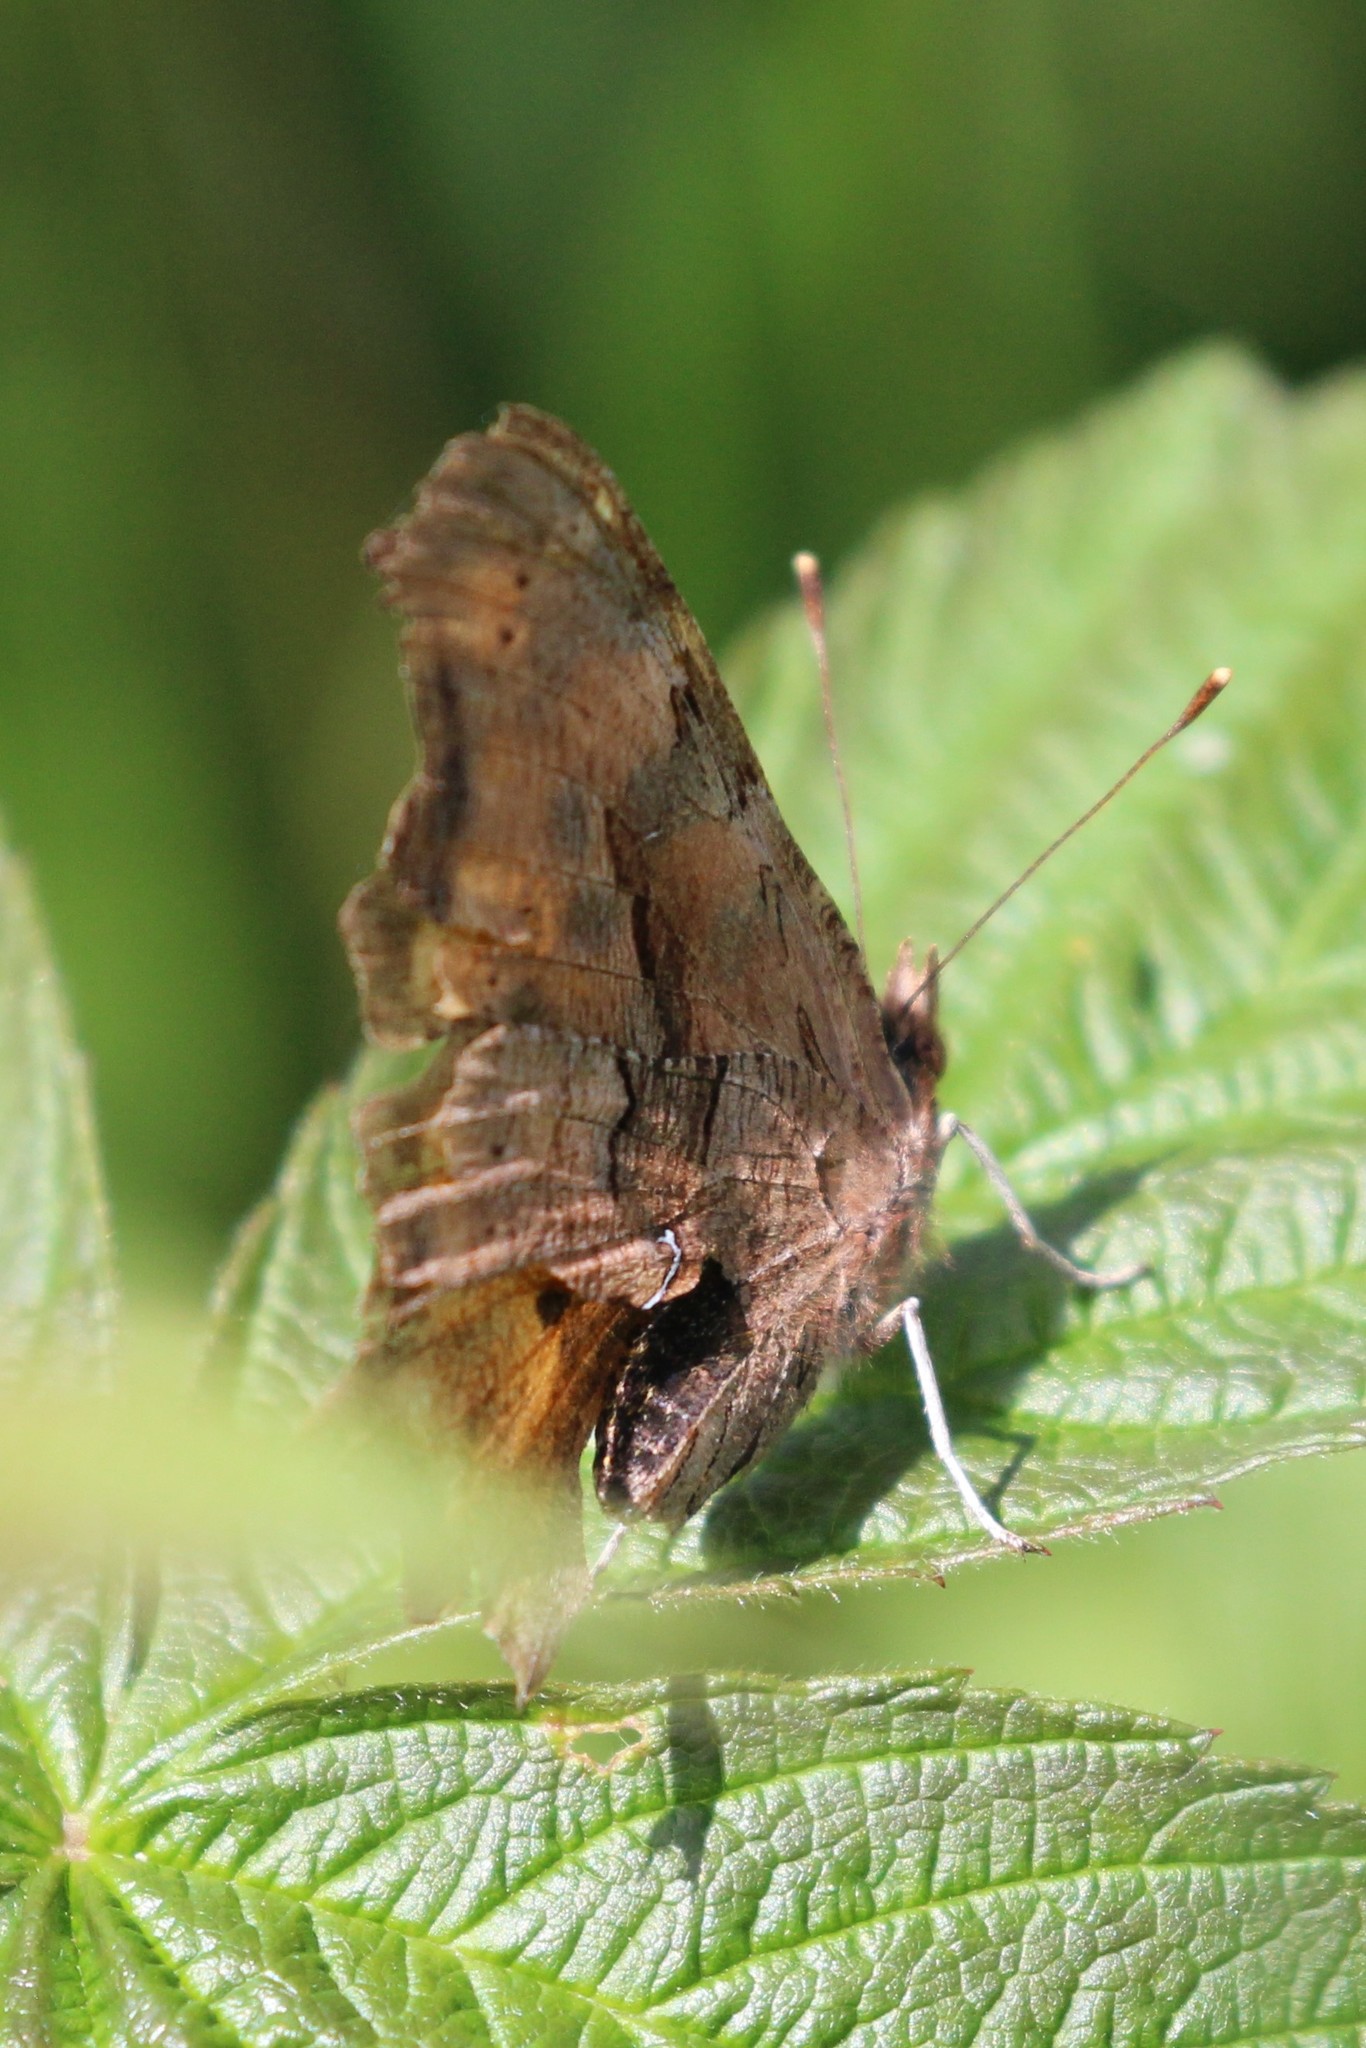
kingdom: Animalia
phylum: Arthropoda
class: Insecta
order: Lepidoptera
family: Nymphalidae
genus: Polygonia
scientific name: Polygonia satyrus
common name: Satyr angle wing
